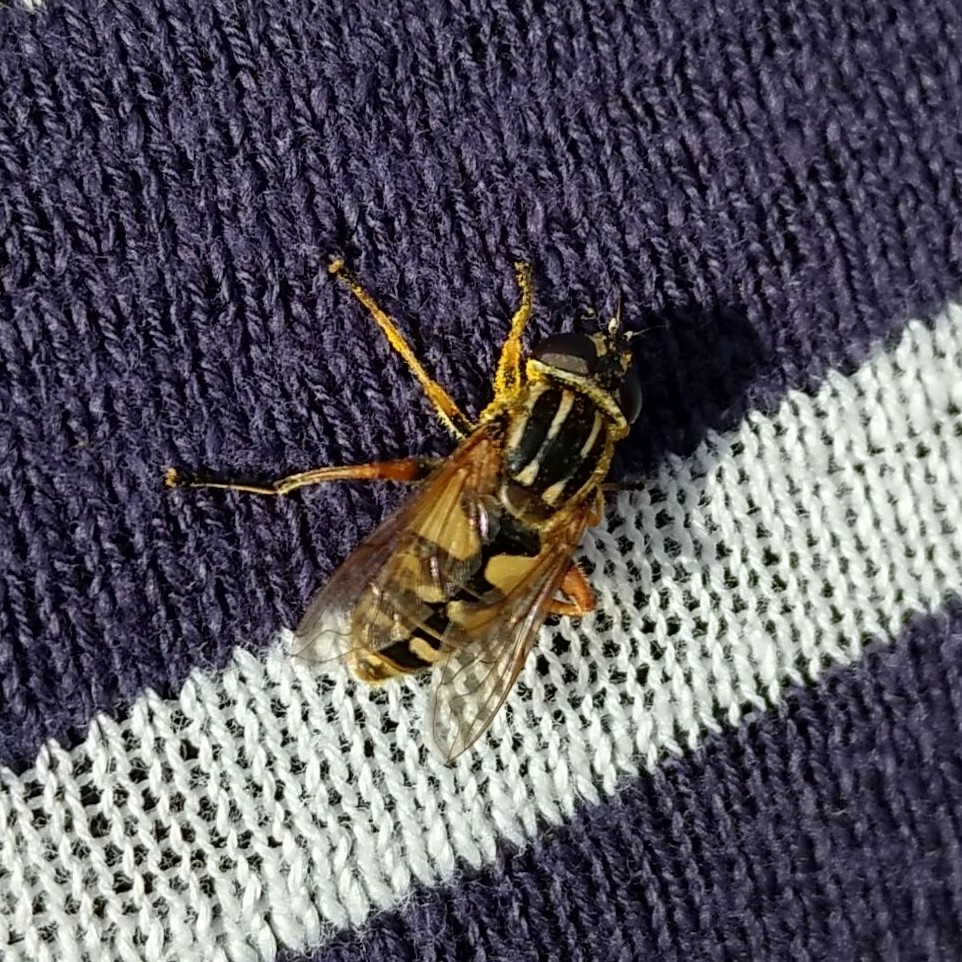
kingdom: Animalia
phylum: Arthropoda
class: Insecta
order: Diptera
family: Syrphidae
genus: Helophilus
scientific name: Helophilus pendulus
